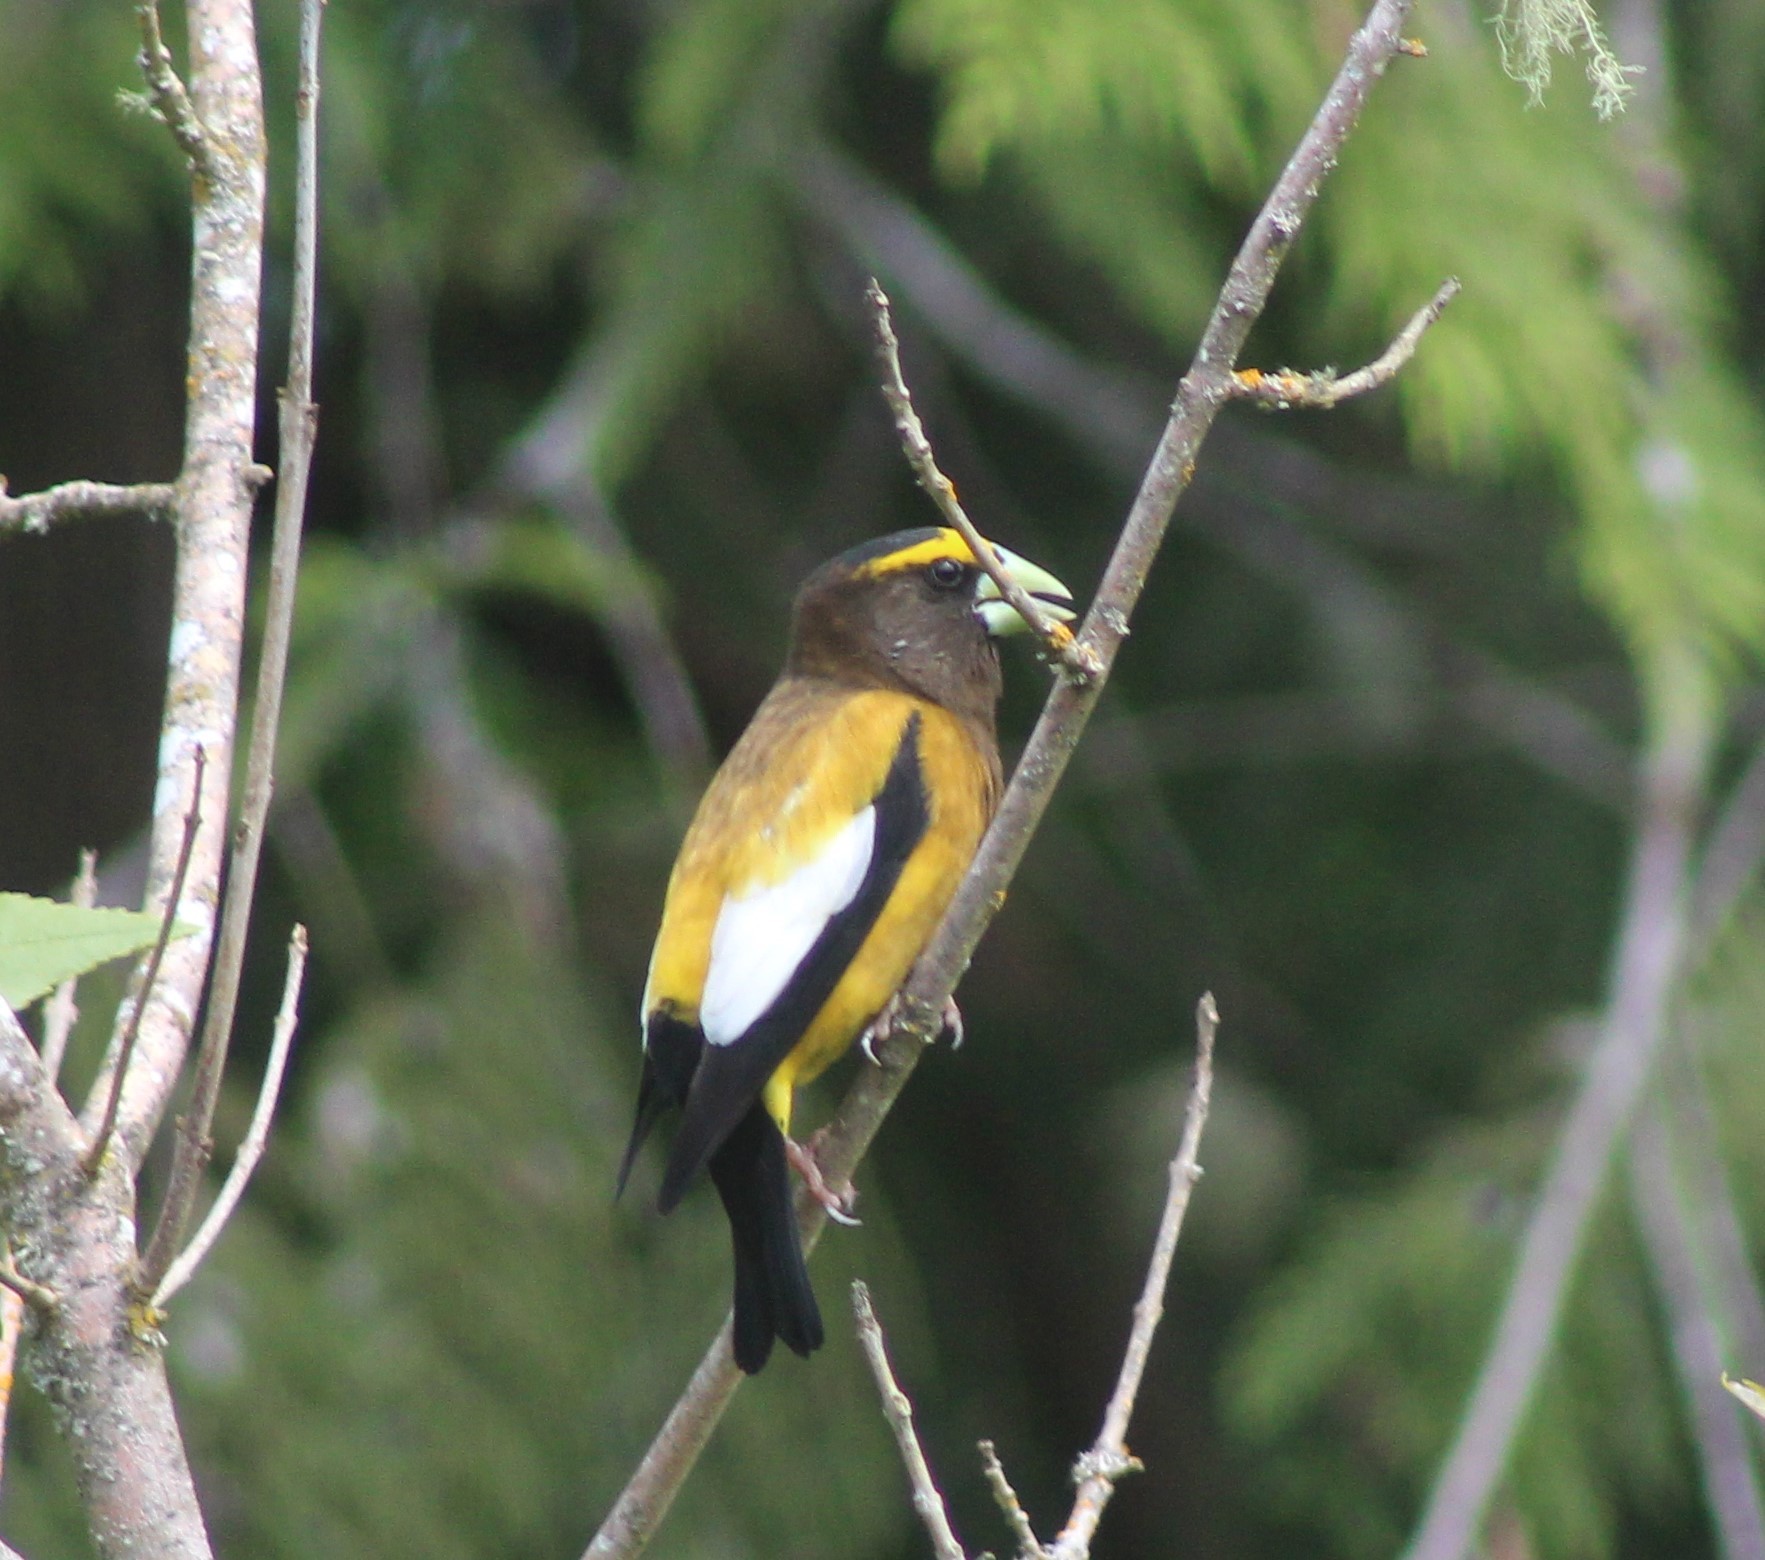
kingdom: Animalia
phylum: Chordata
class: Aves
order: Passeriformes
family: Fringillidae
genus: Hesperiphona
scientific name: Hesperiphona vespertina
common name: Evening grosbeak
